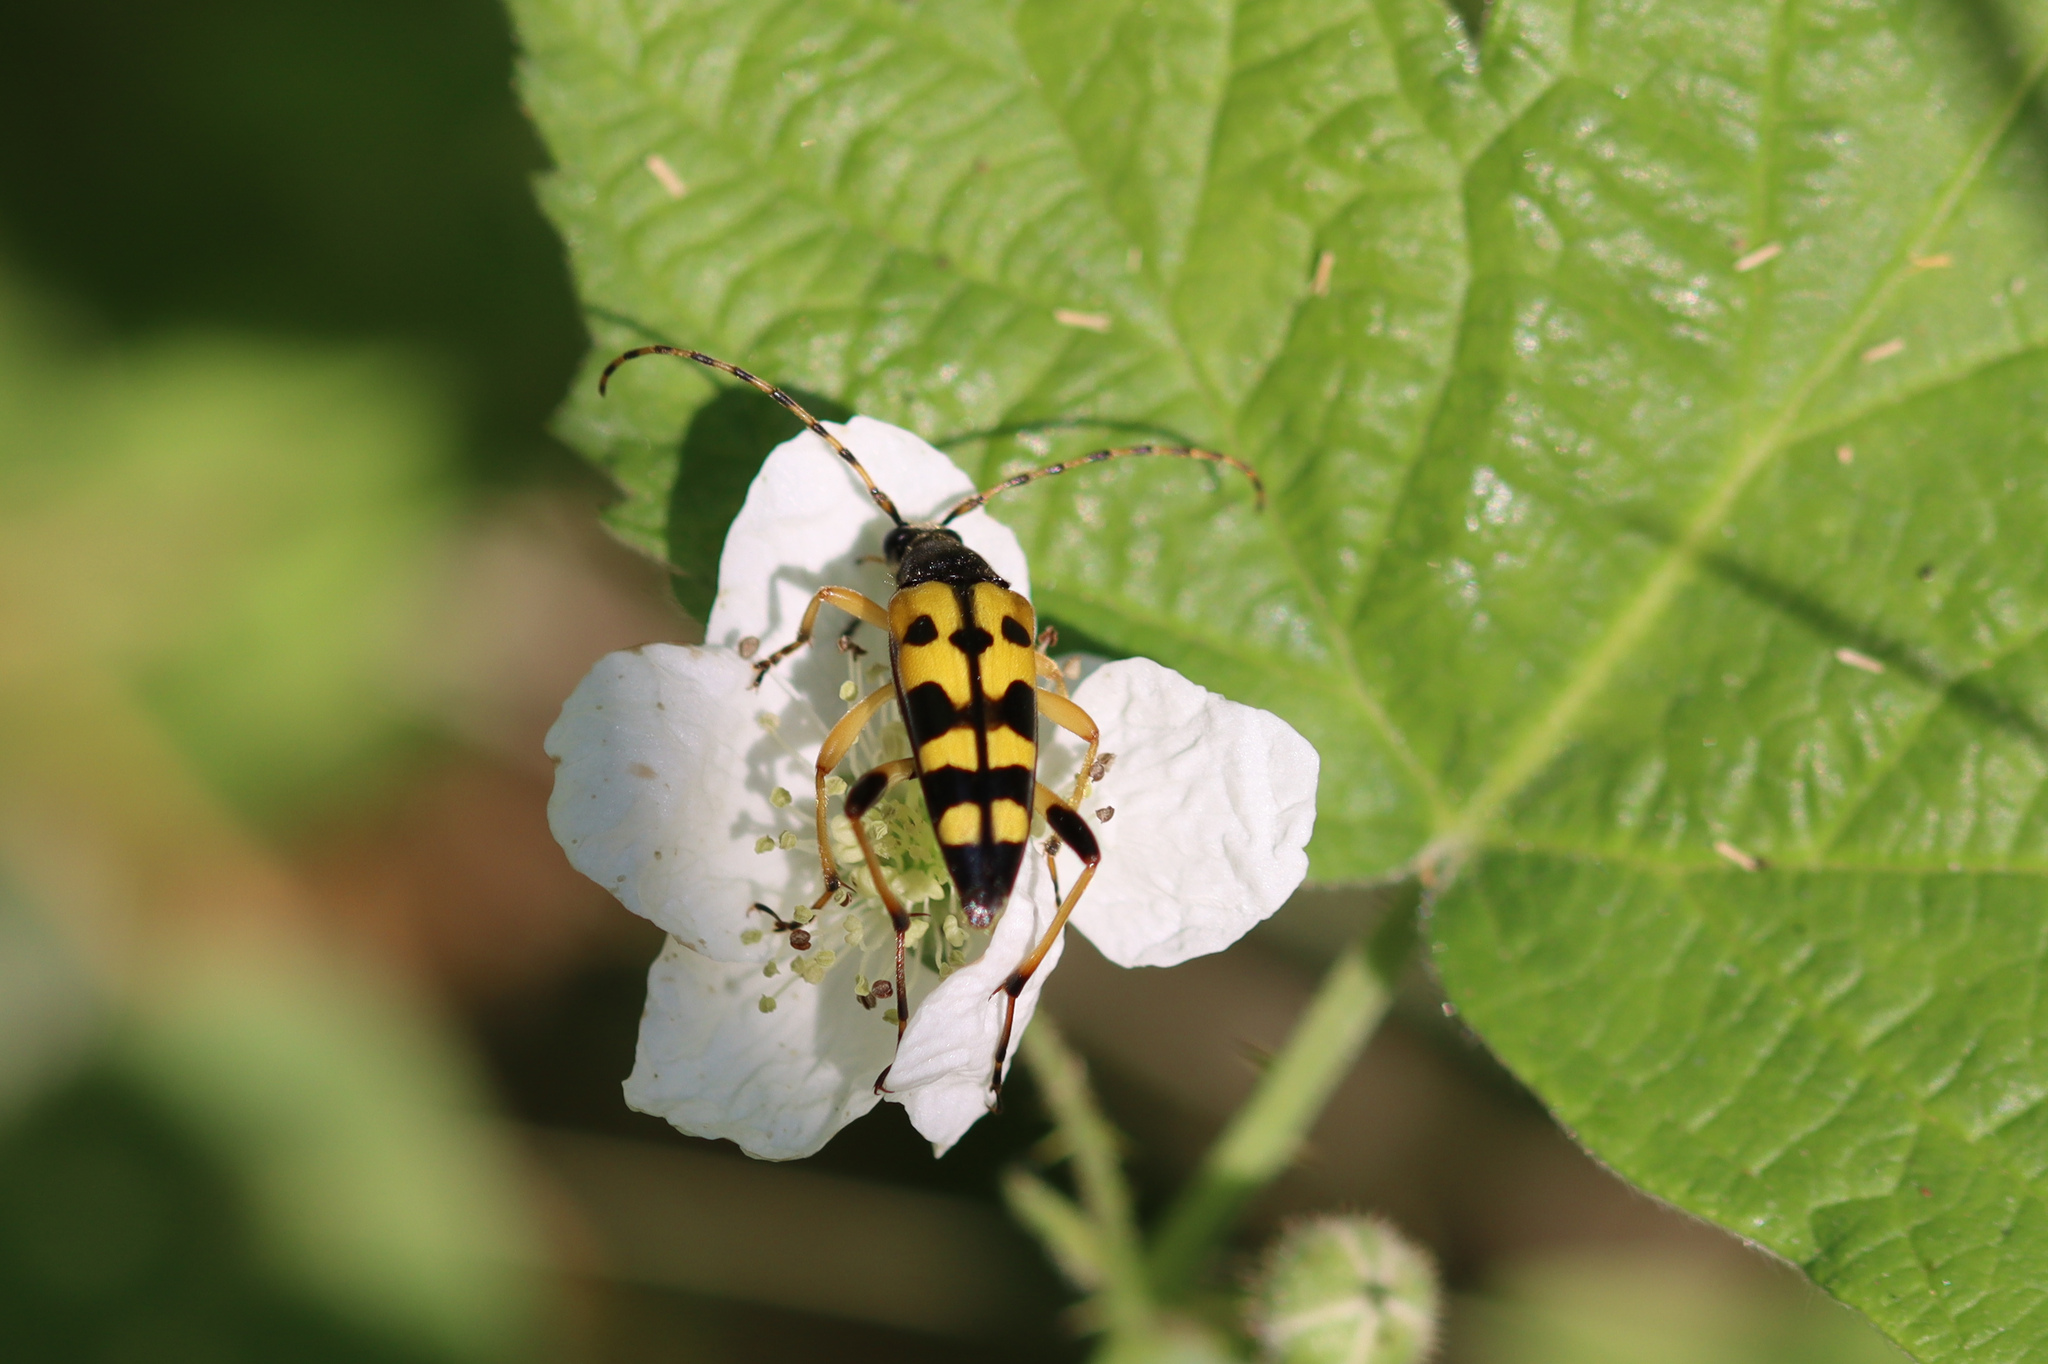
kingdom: Animalia
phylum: Arthropoda
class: Insecta
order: Coleoptera
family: Cerambycidae
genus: Rutpela
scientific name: Rutpela maculata
